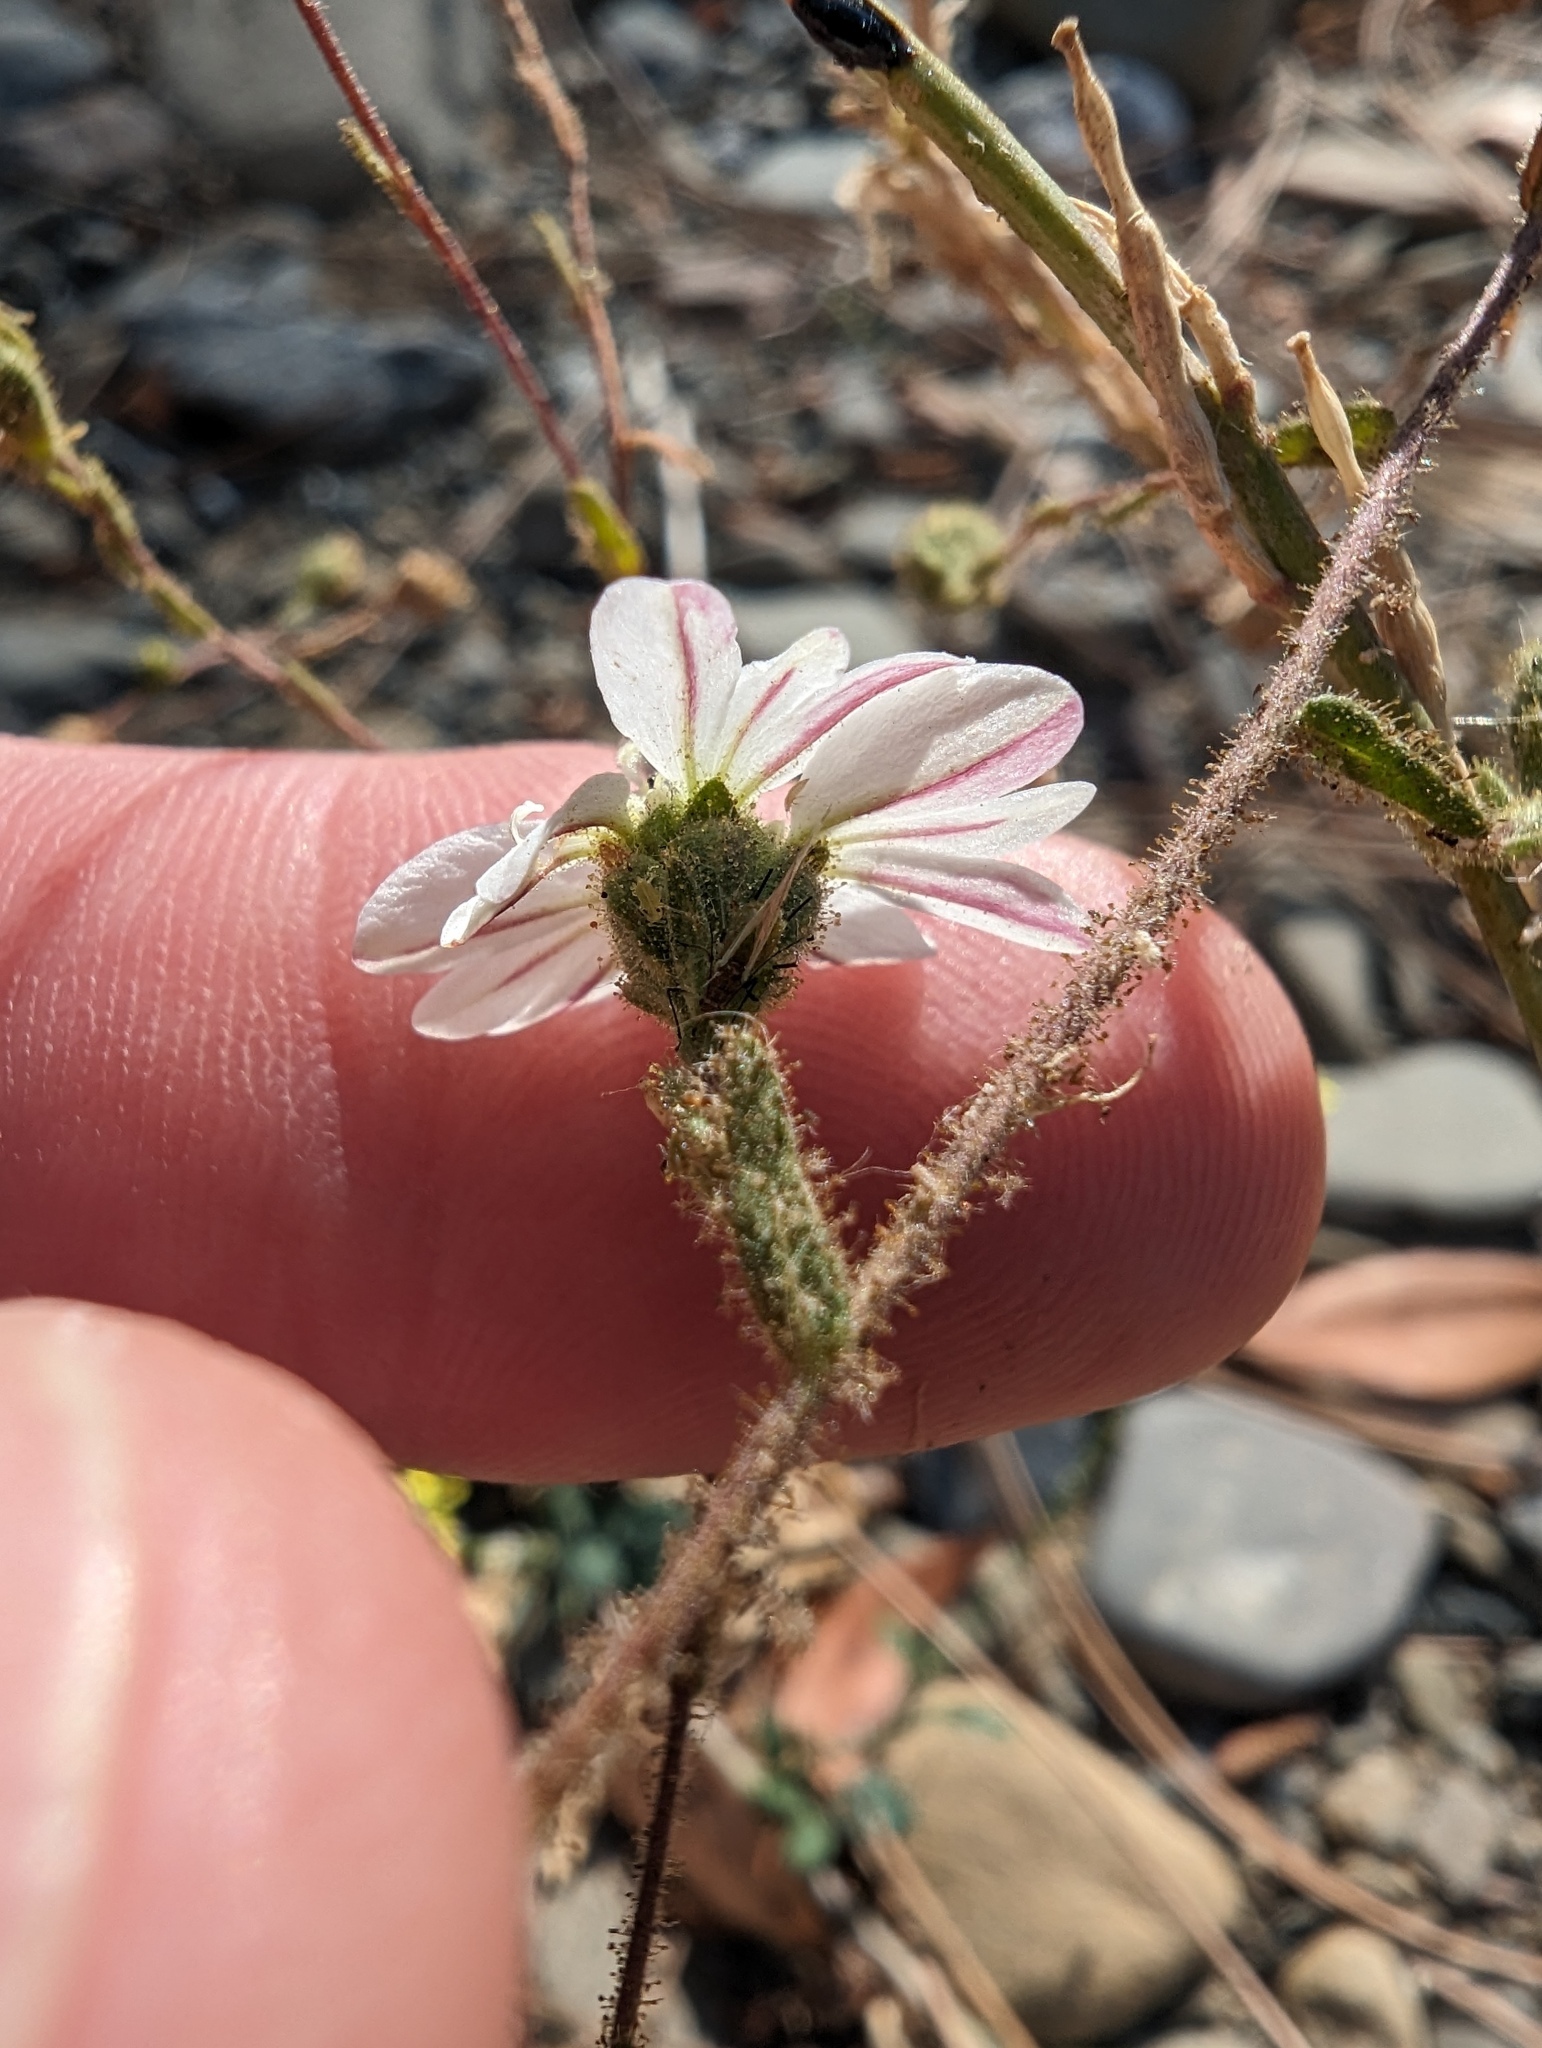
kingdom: Plantae
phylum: Tracheophyta
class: Magnoliopsida
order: Asterales
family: Asteraceae
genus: Hemizonia
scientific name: Hemizonia congesta
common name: Hayfield tarweed
